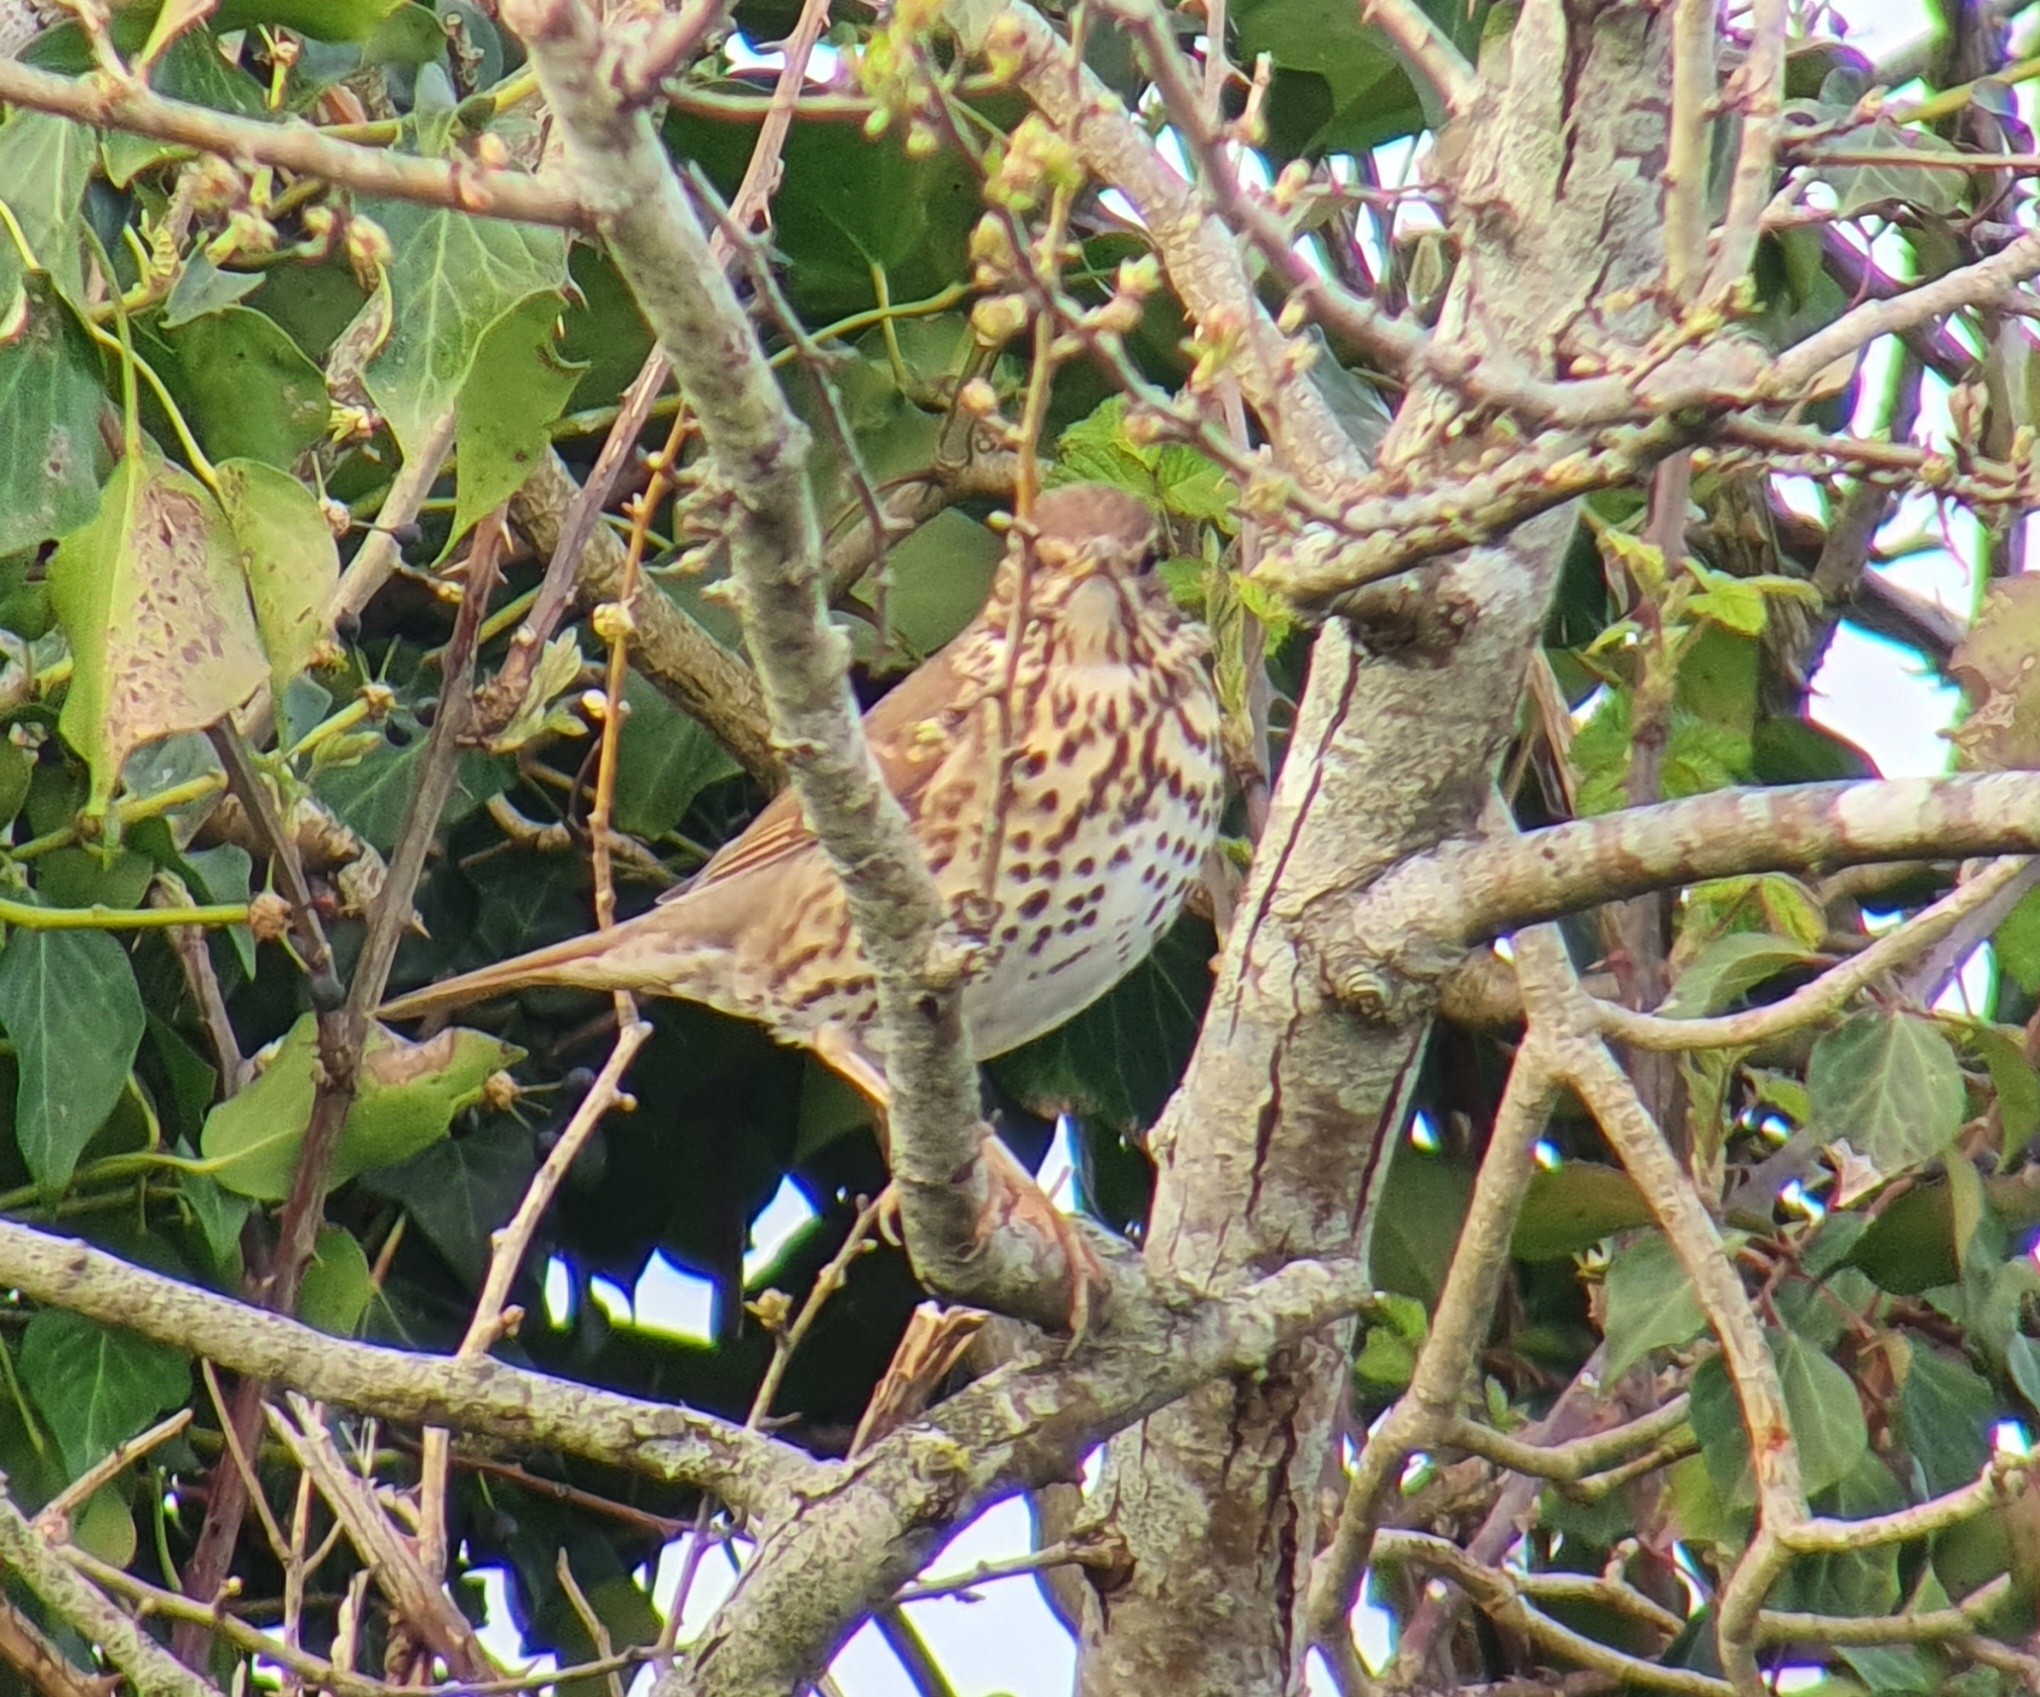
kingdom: Animalia
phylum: Chordata
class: Aves
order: Passeriformes
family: Turdidae
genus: Turdus
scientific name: Turdus philomelos
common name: Song thrush
